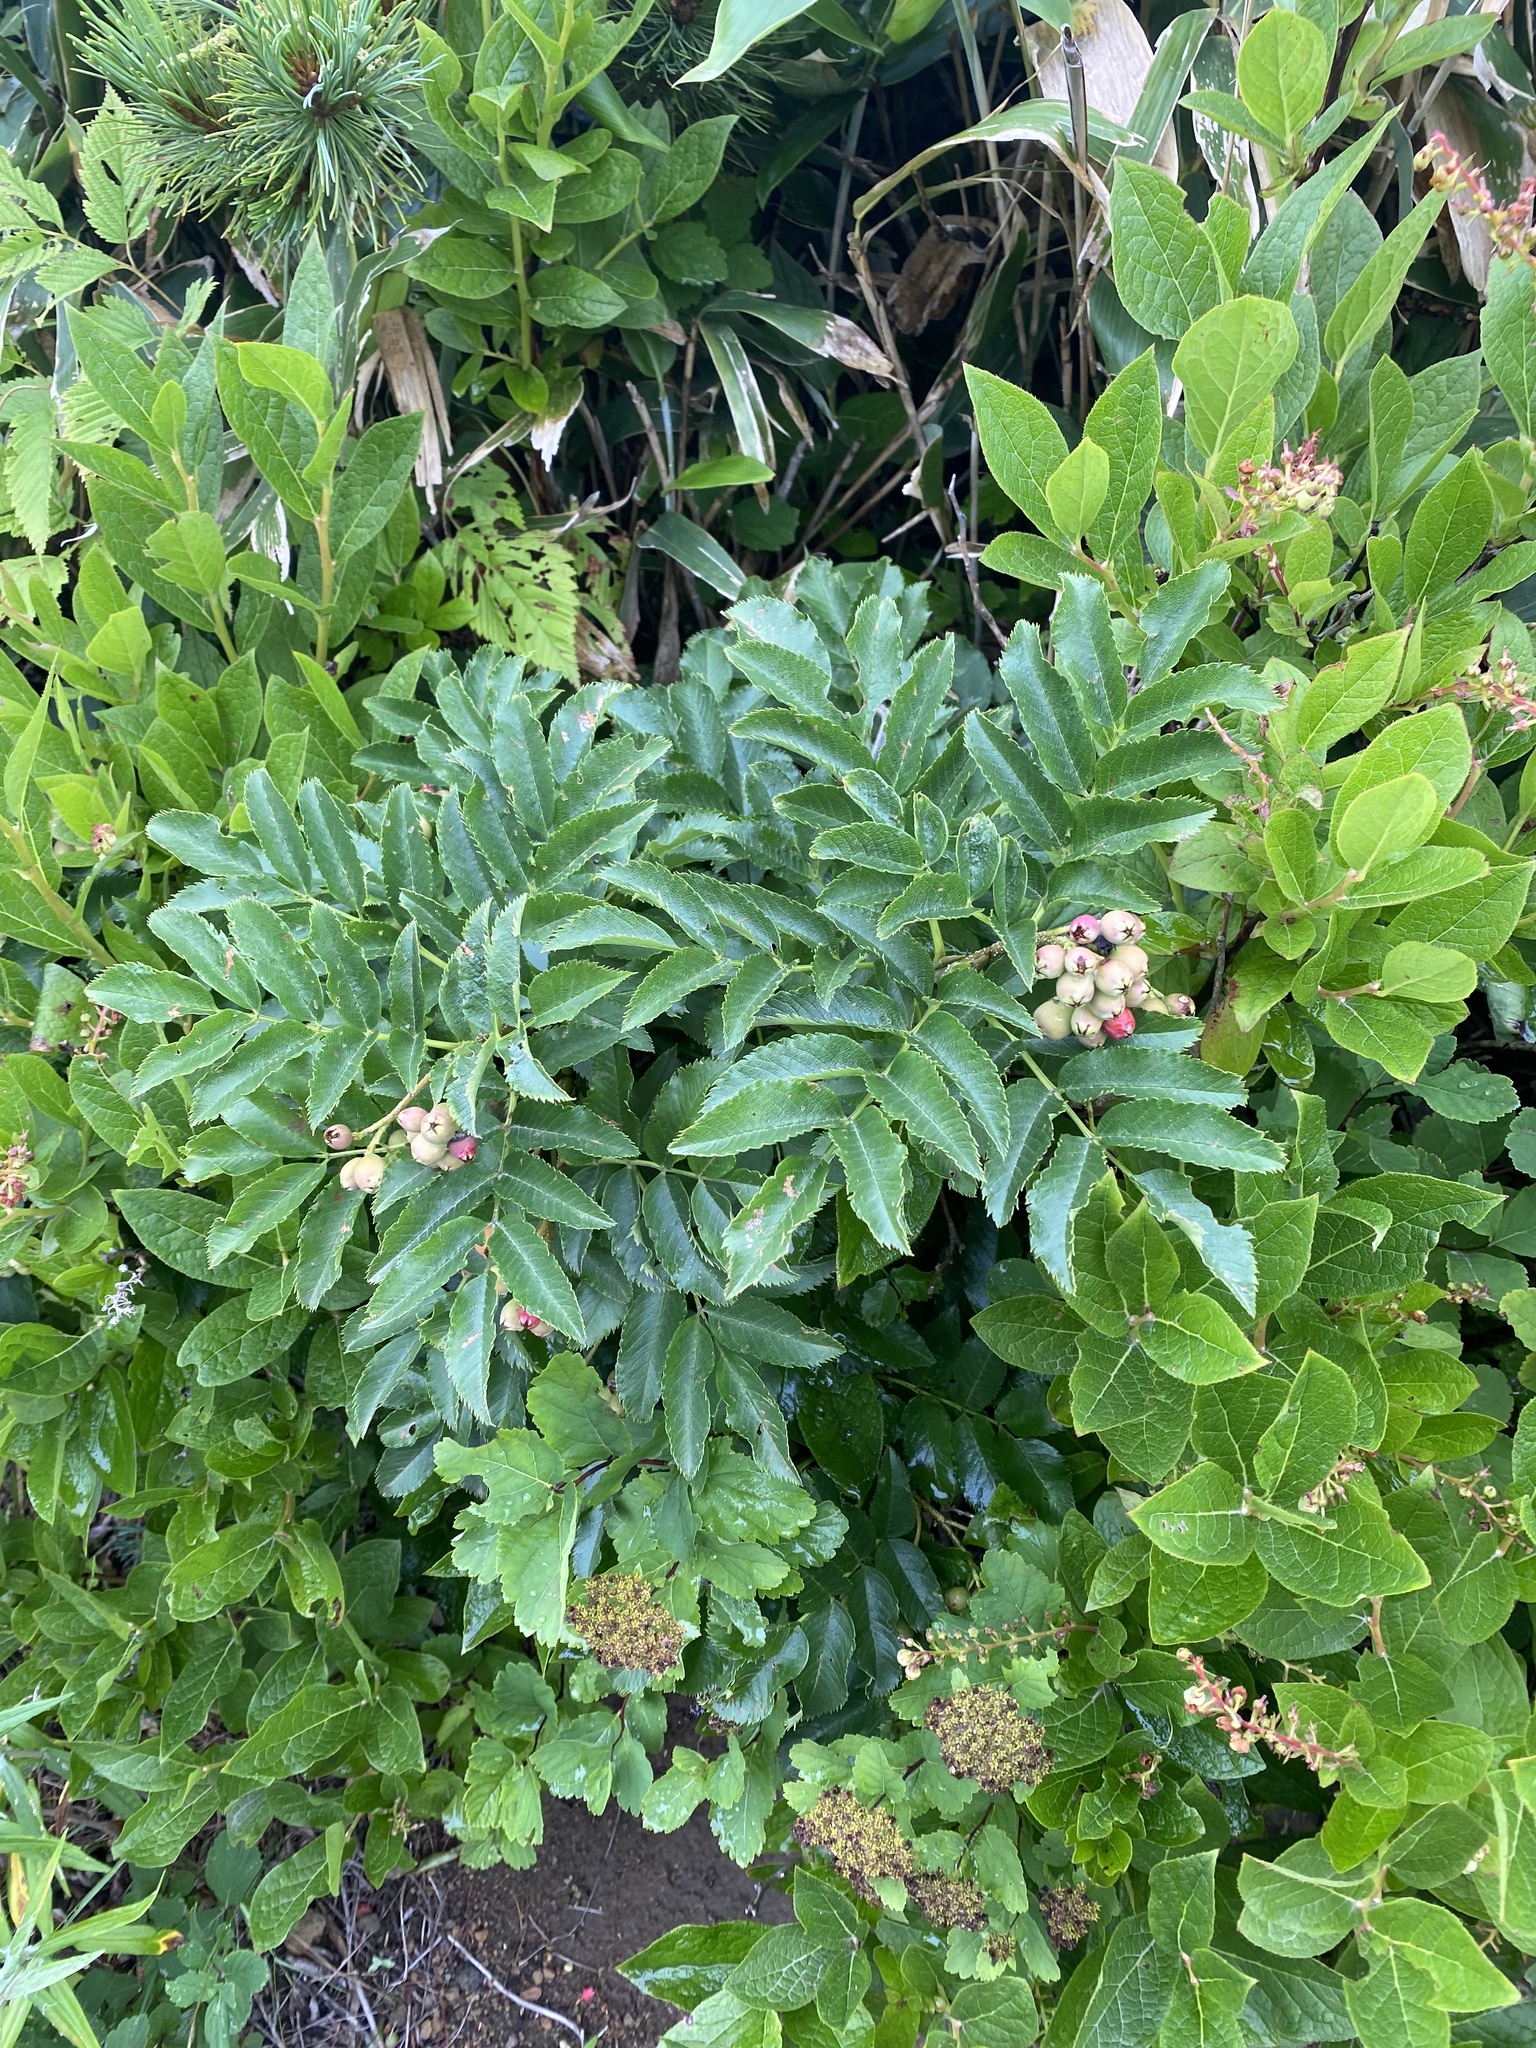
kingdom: Plantae
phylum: Tracheophyta
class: Magnoliopsida
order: Rosales
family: Rosaceae
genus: Sorbus
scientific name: Sorbus sambucifolia
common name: Siberian mountain-ash
